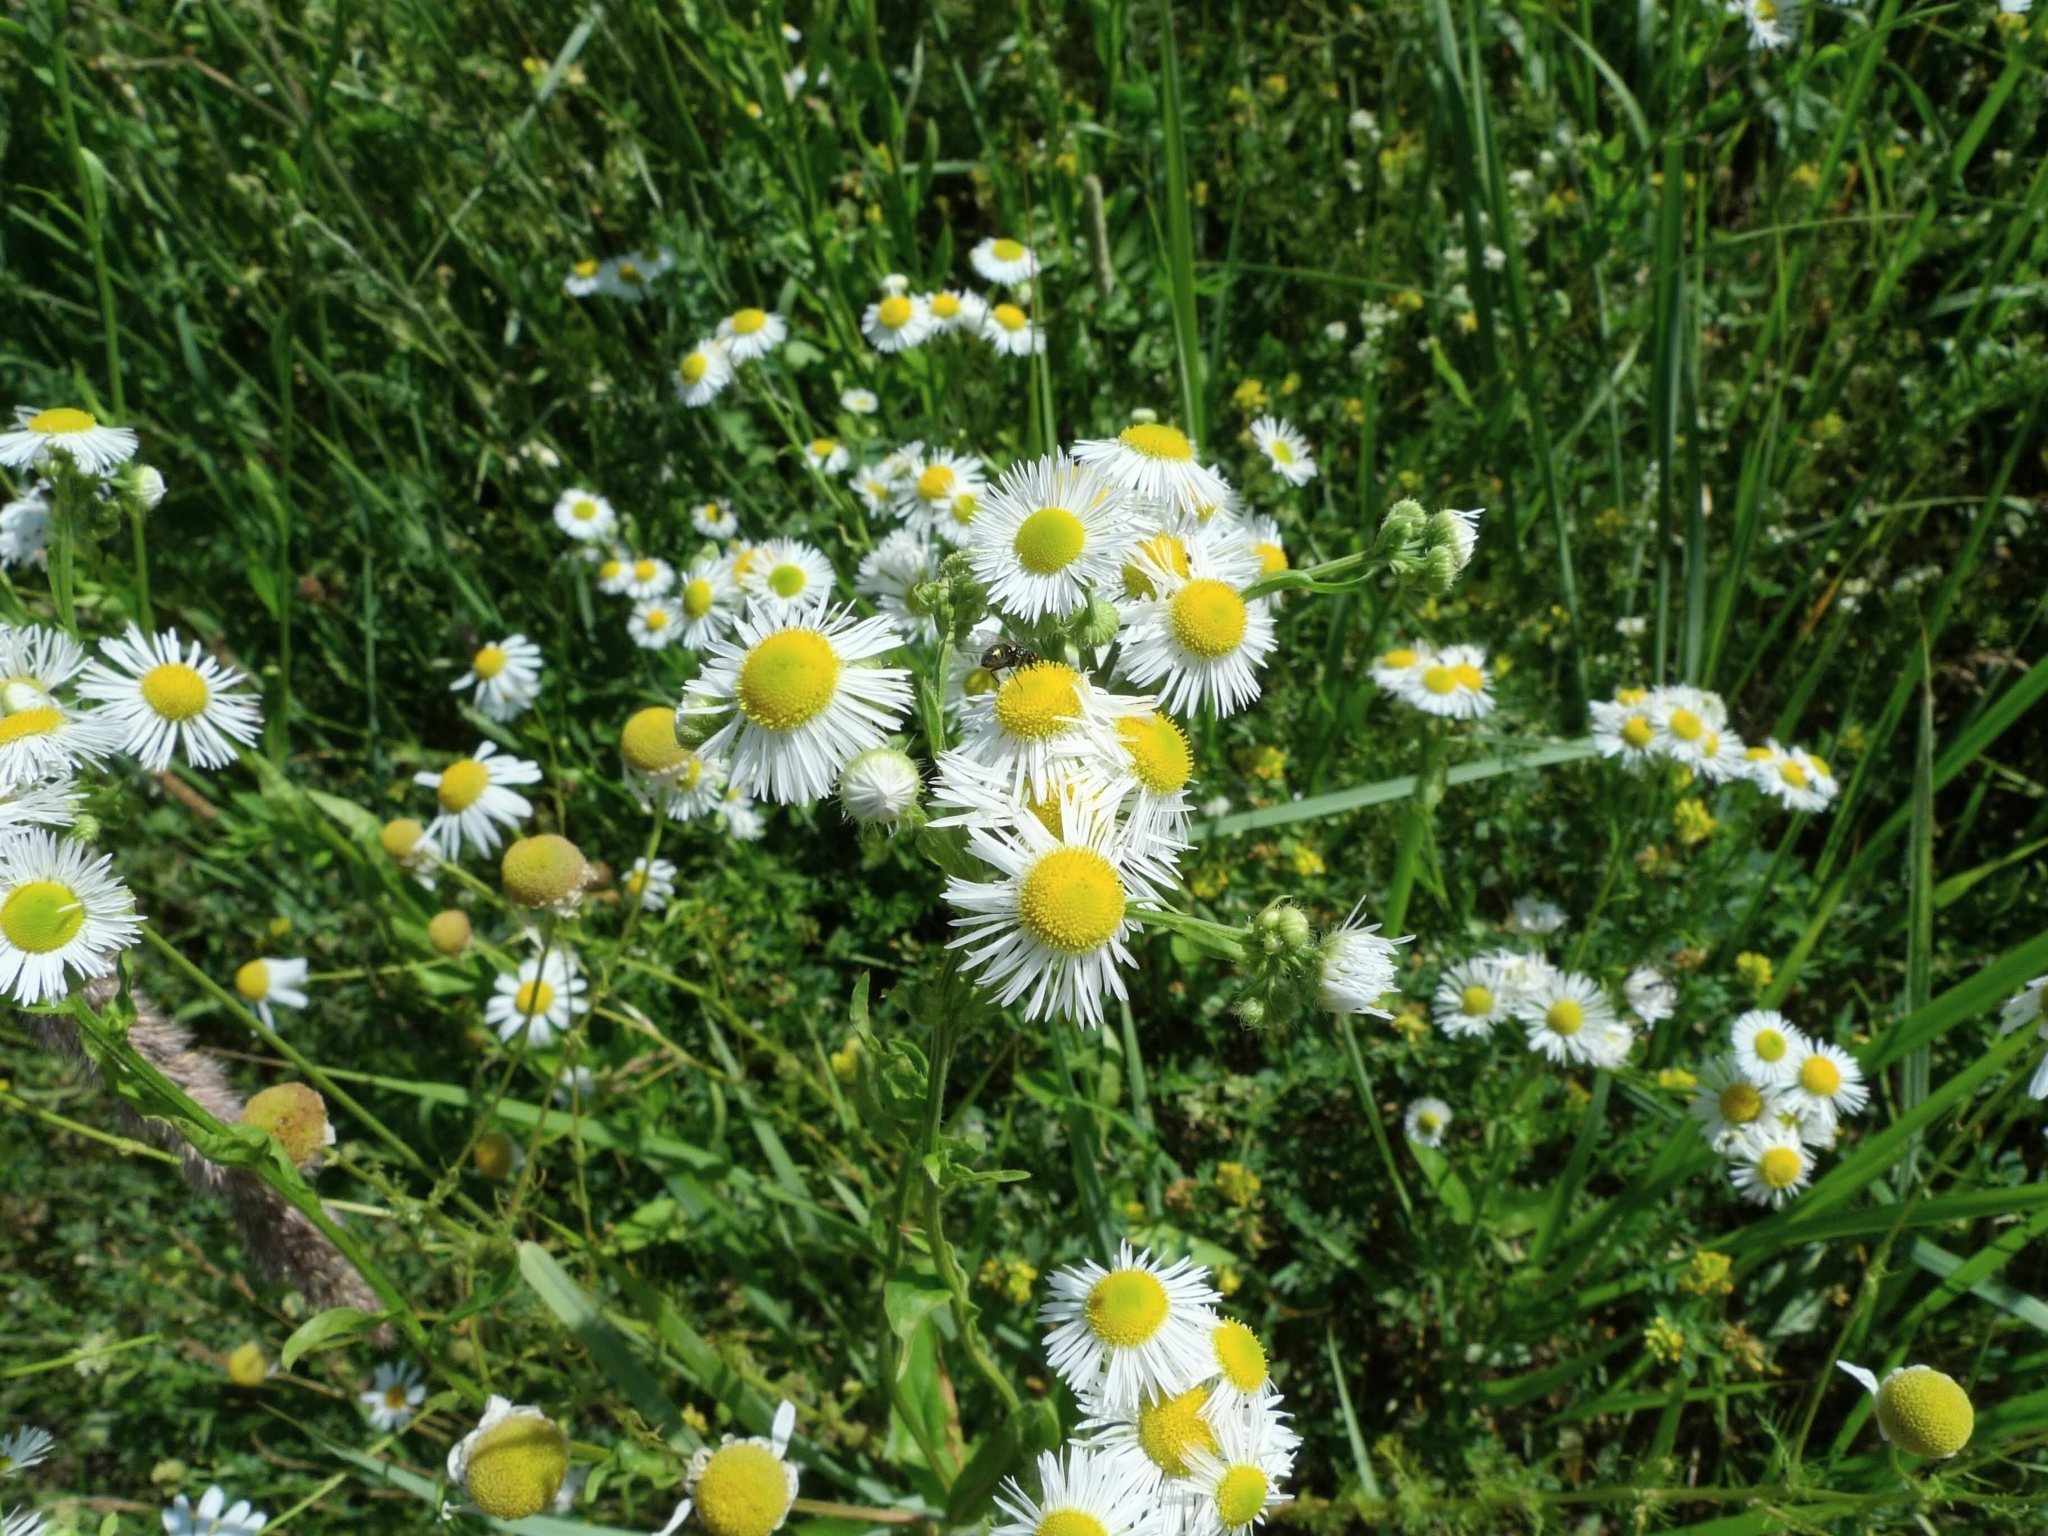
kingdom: Plantae
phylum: Tracheophyta
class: Magnoliopsida
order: Asterales
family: Asteraceae
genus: Erigeron
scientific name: Erigeron annuus
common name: Tall fleabane
